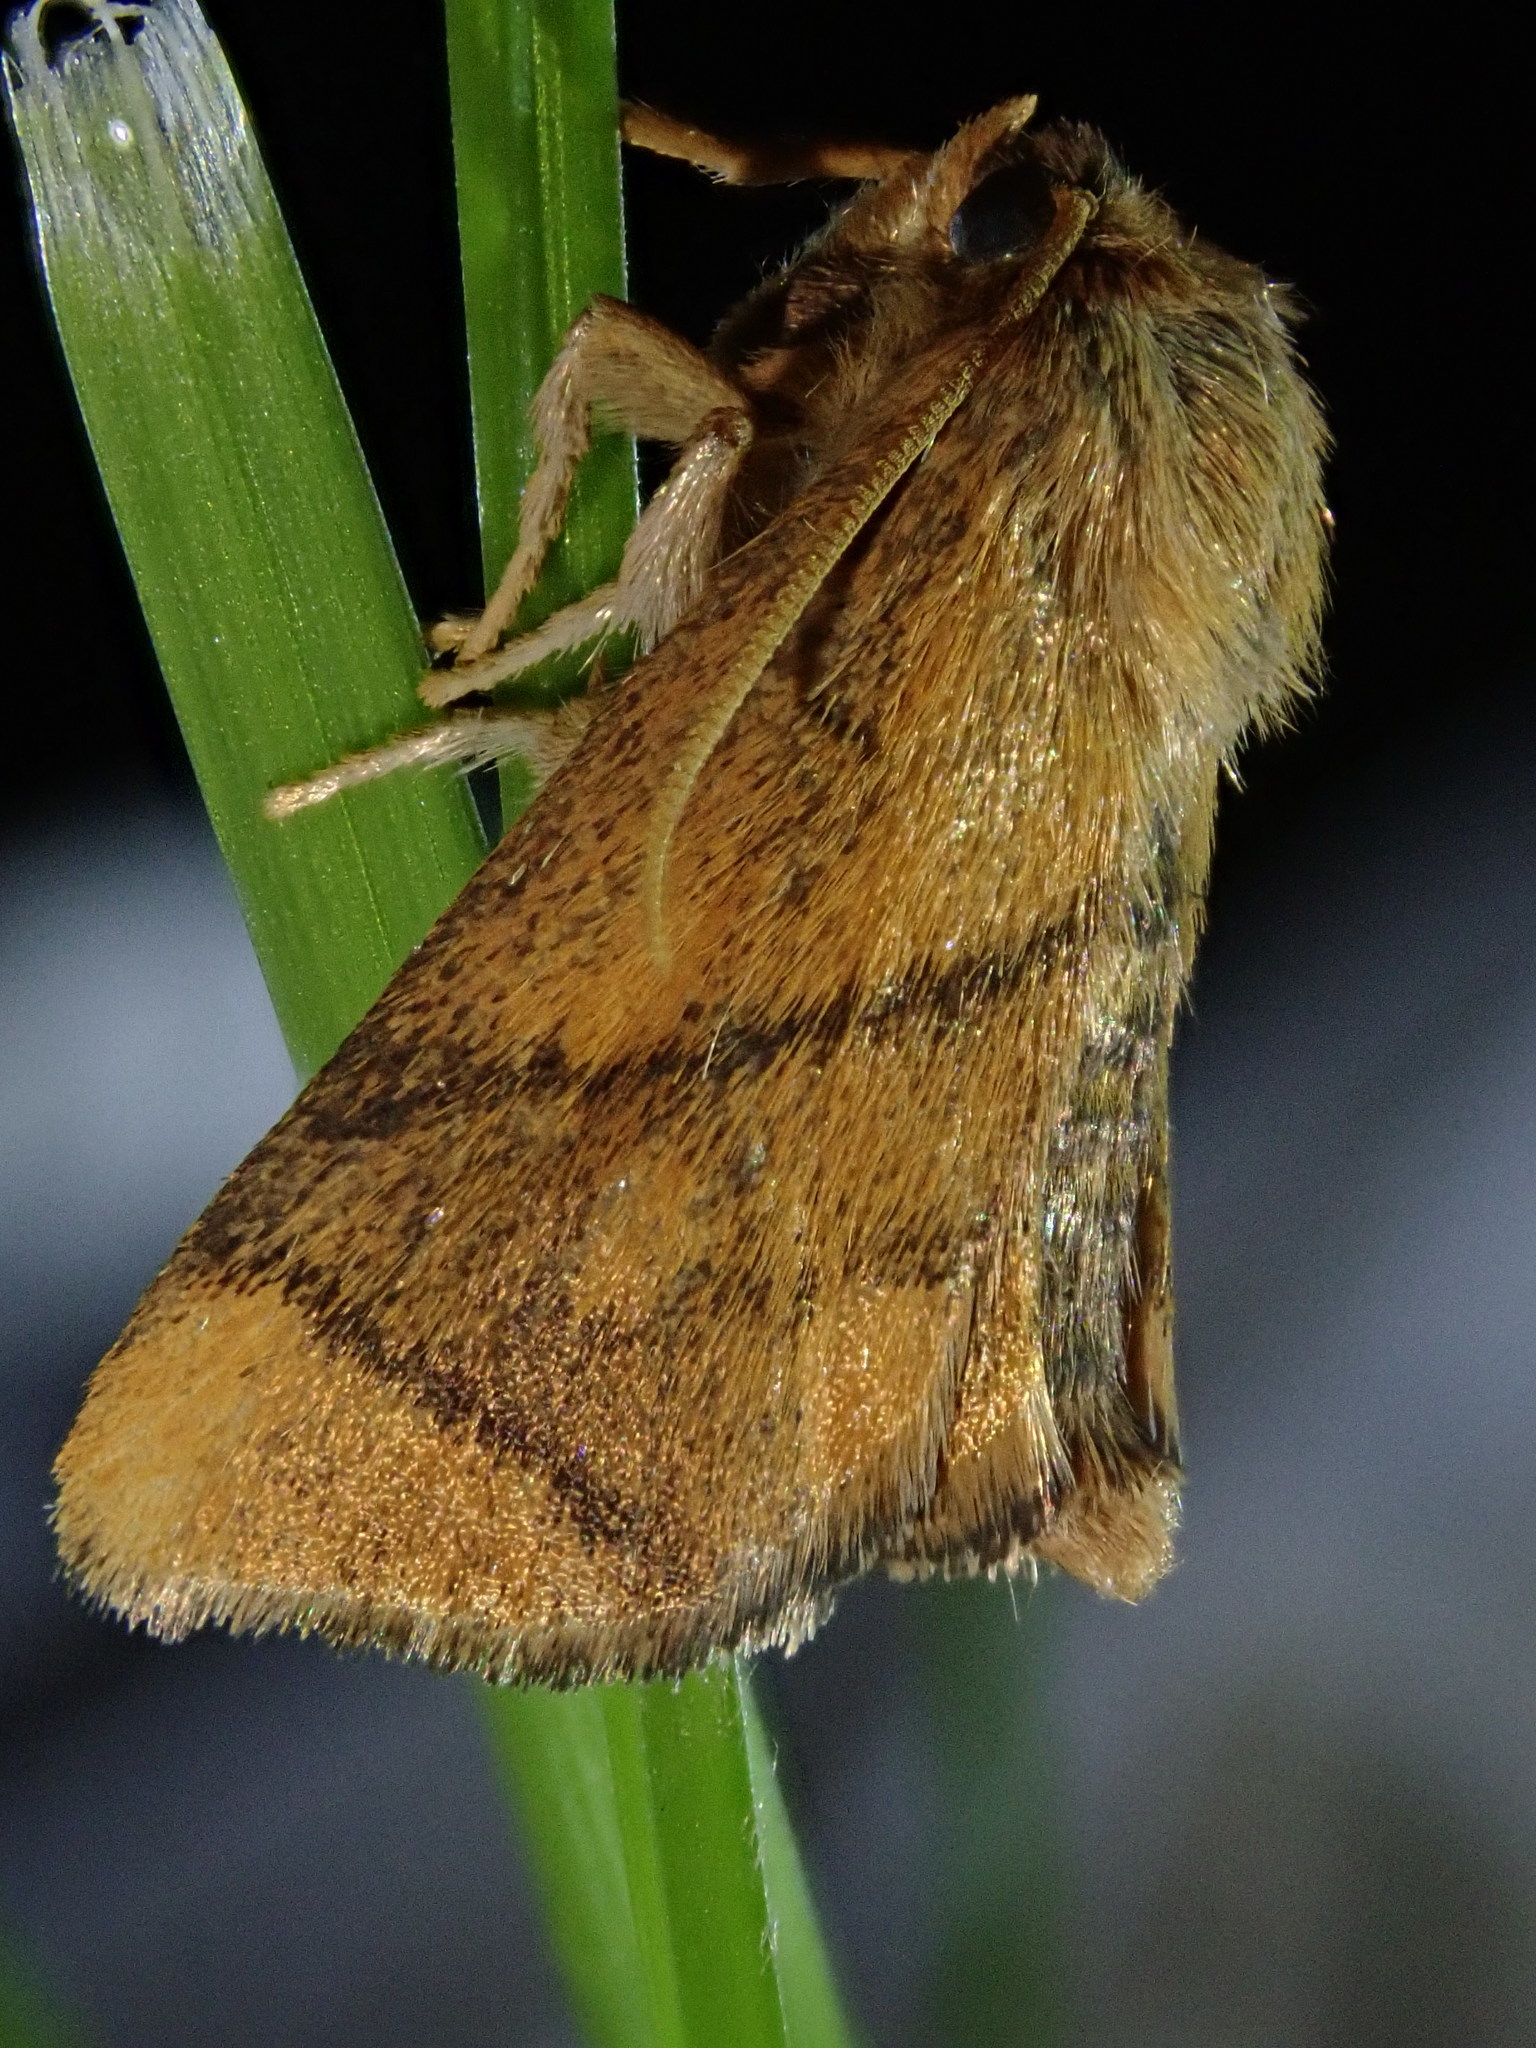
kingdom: Animalia
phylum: Arthropoda
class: Insecta
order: Lepidoptera
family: Limacodidae
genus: Apoda
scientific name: Apoda limacodes
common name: Festoon
